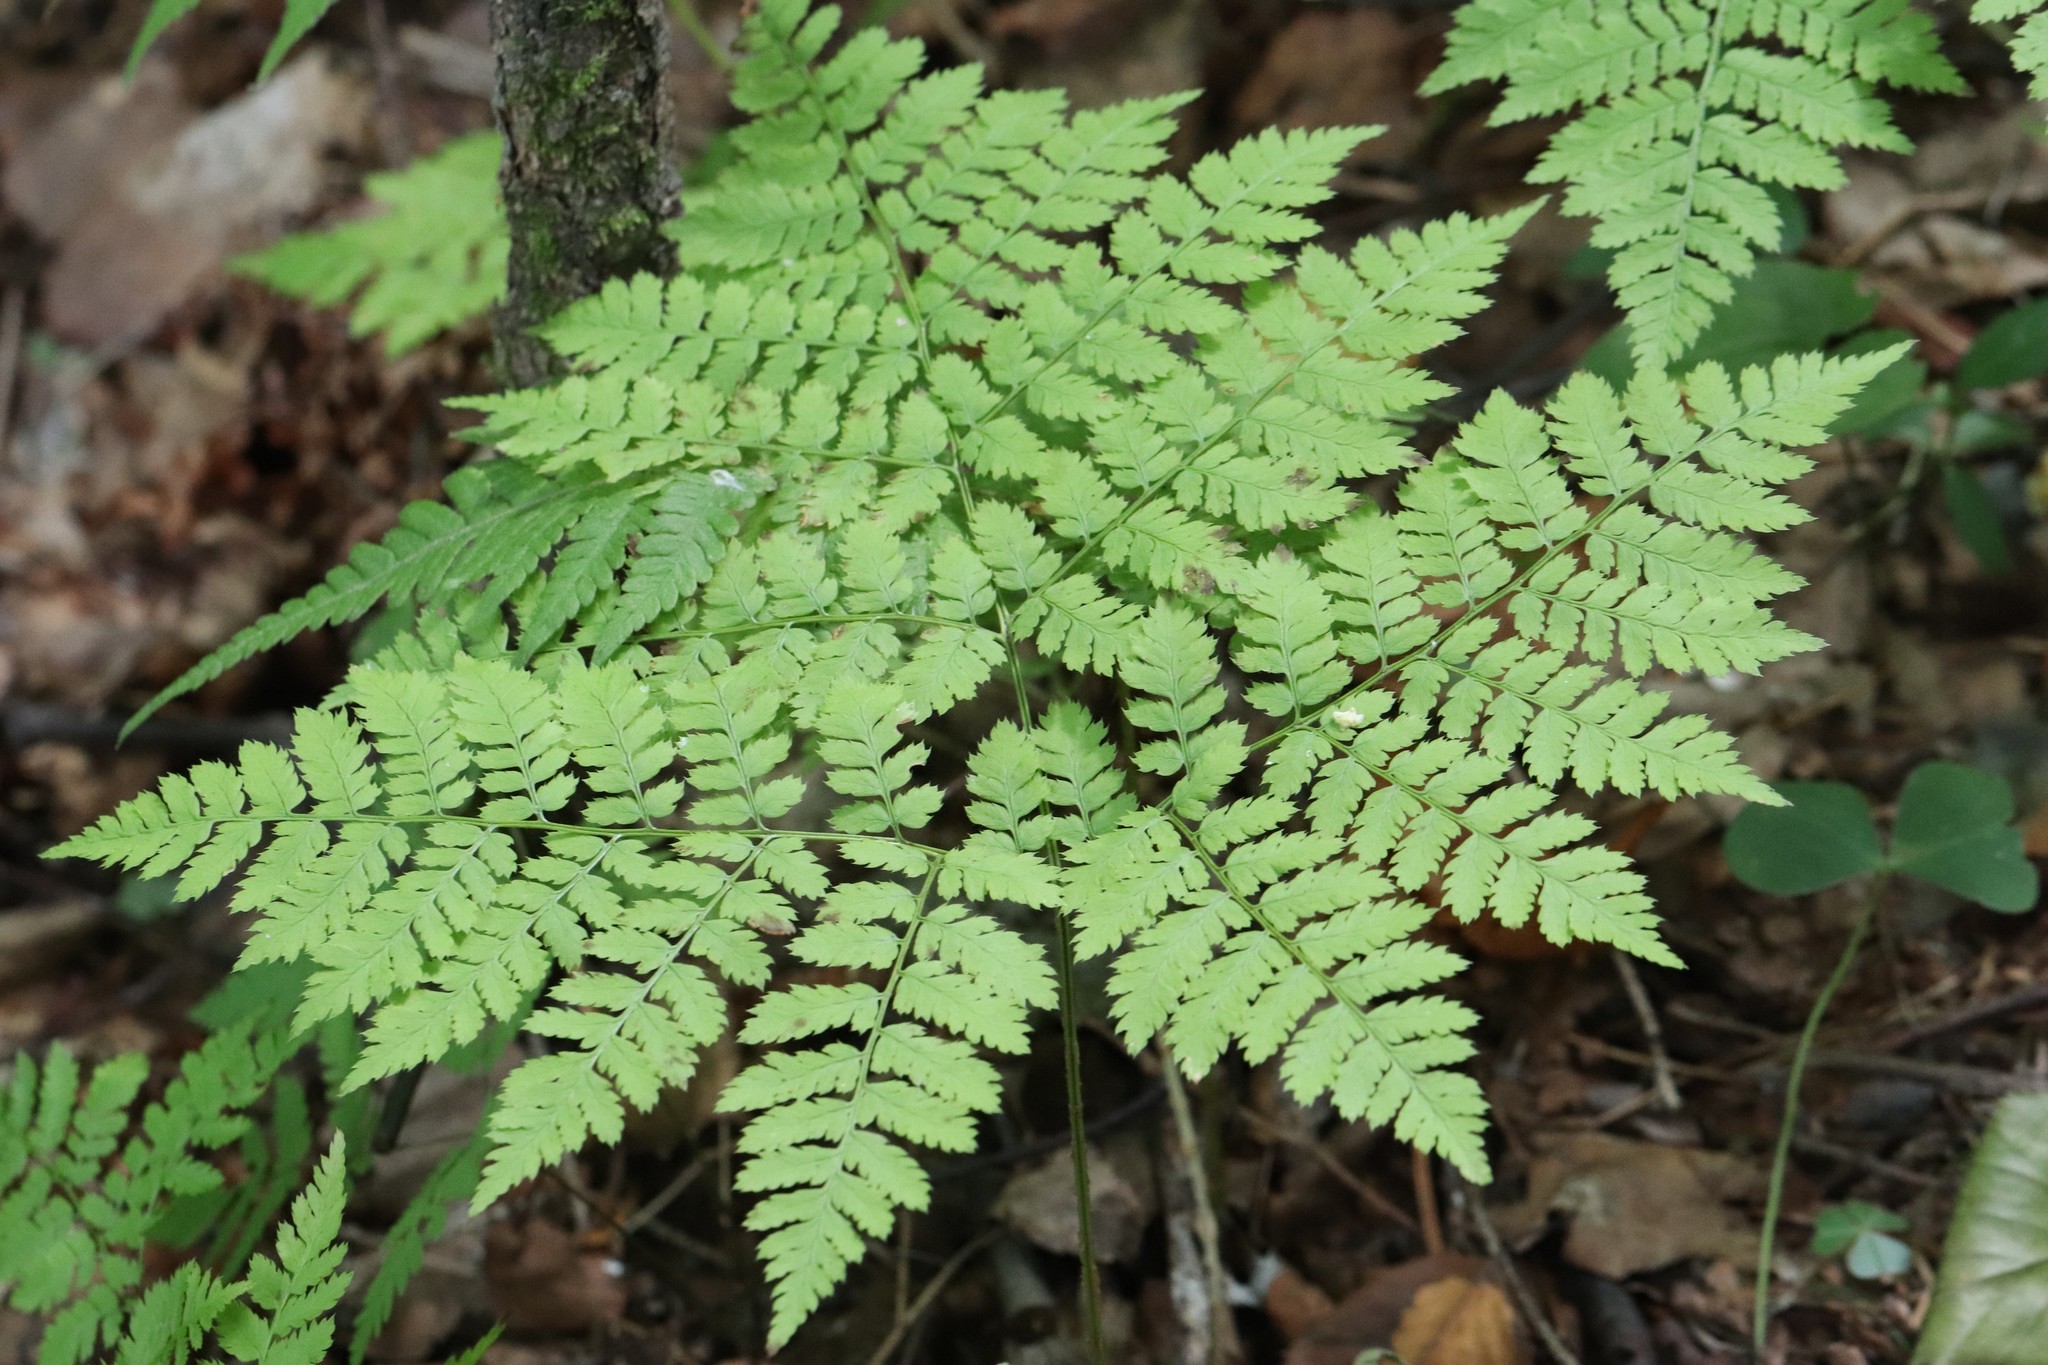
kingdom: Plantae
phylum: Tracheophyta
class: Polypodiopsida
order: Polypodiales
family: Dryopteridaceae
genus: Dryopteris
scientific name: Dryopteris amurensis
